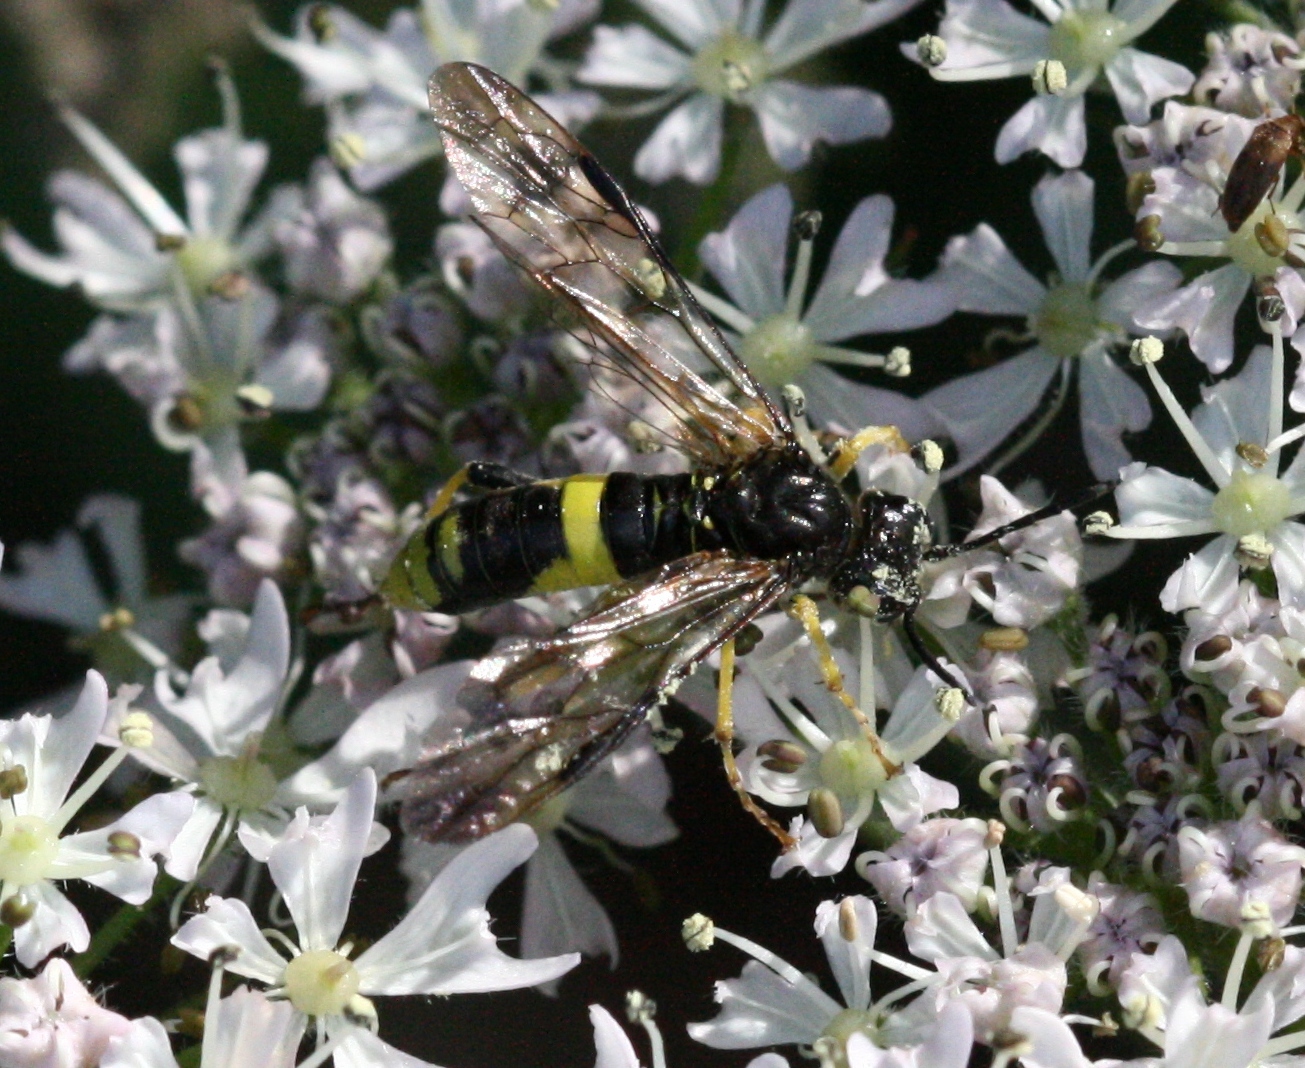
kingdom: Animalia
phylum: Arthropoda
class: Insecta
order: Hymenoptera
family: Tenthredinidae
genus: Tenthredo
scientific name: Tenthredo temula
